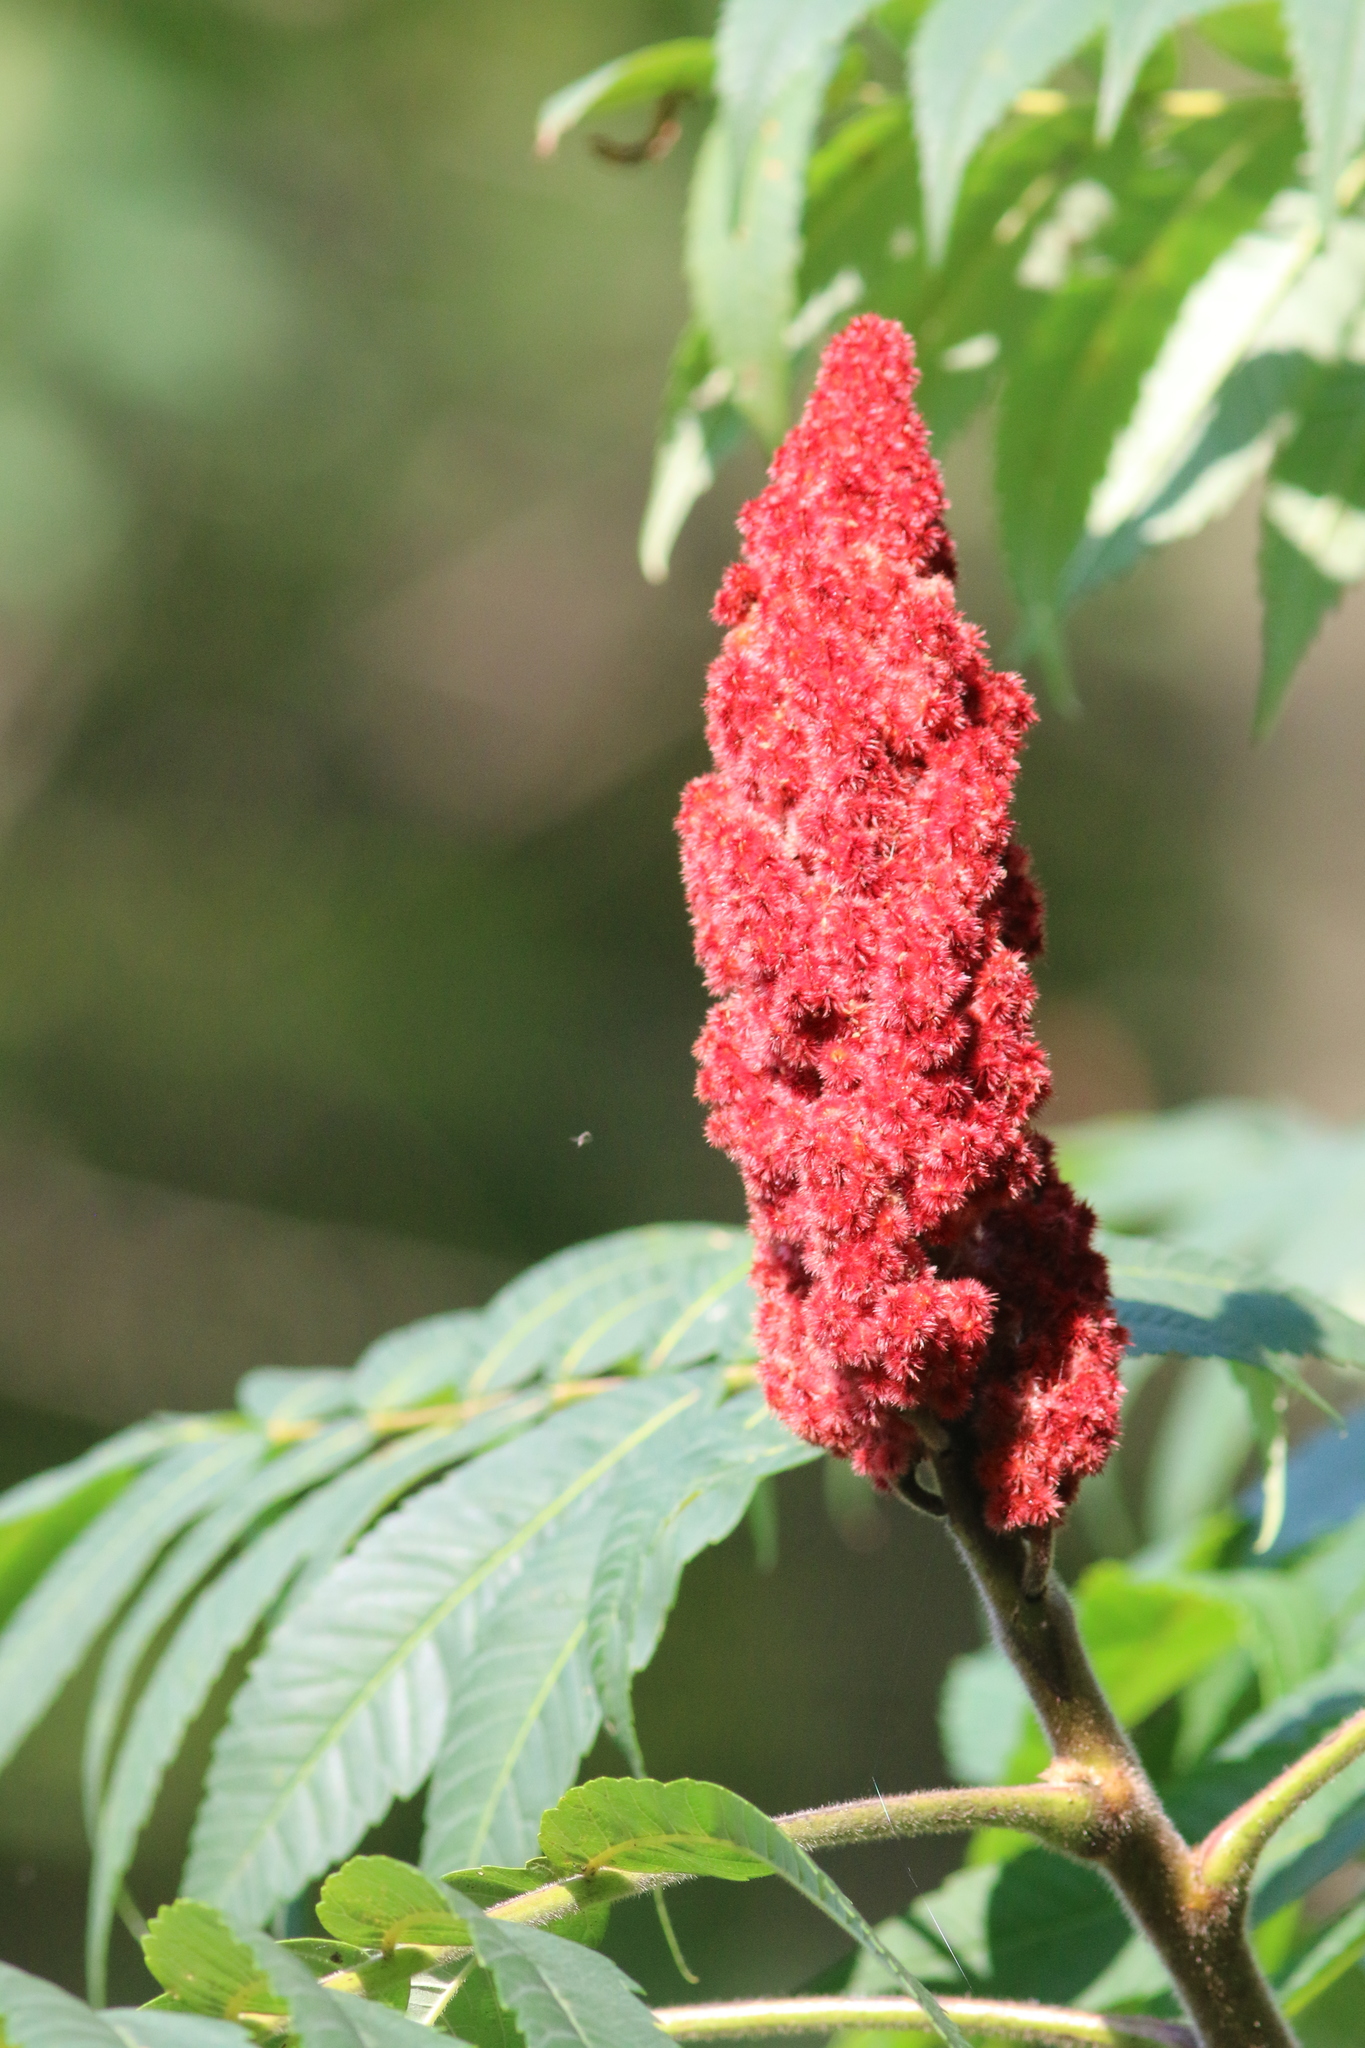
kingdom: Plantae
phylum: Tracheophyta
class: Magnoliopsida
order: Sapindales
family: Anacardiaceae
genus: Rhus
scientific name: Rhus typhina
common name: Staghorn sumac
